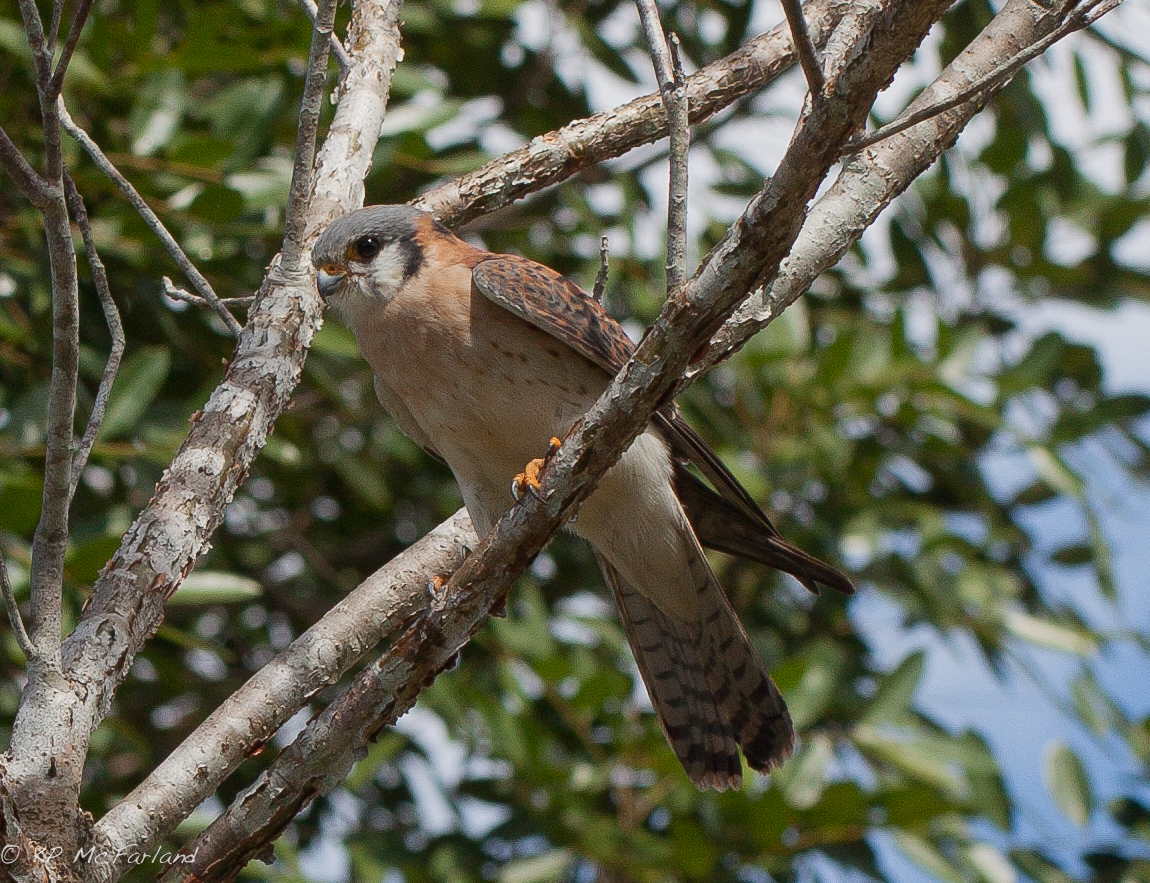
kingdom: Animalia
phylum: Chordata
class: Aves
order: Falconiformes
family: Falconidae
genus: Falco
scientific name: Falco sparverius
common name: American kestrel
